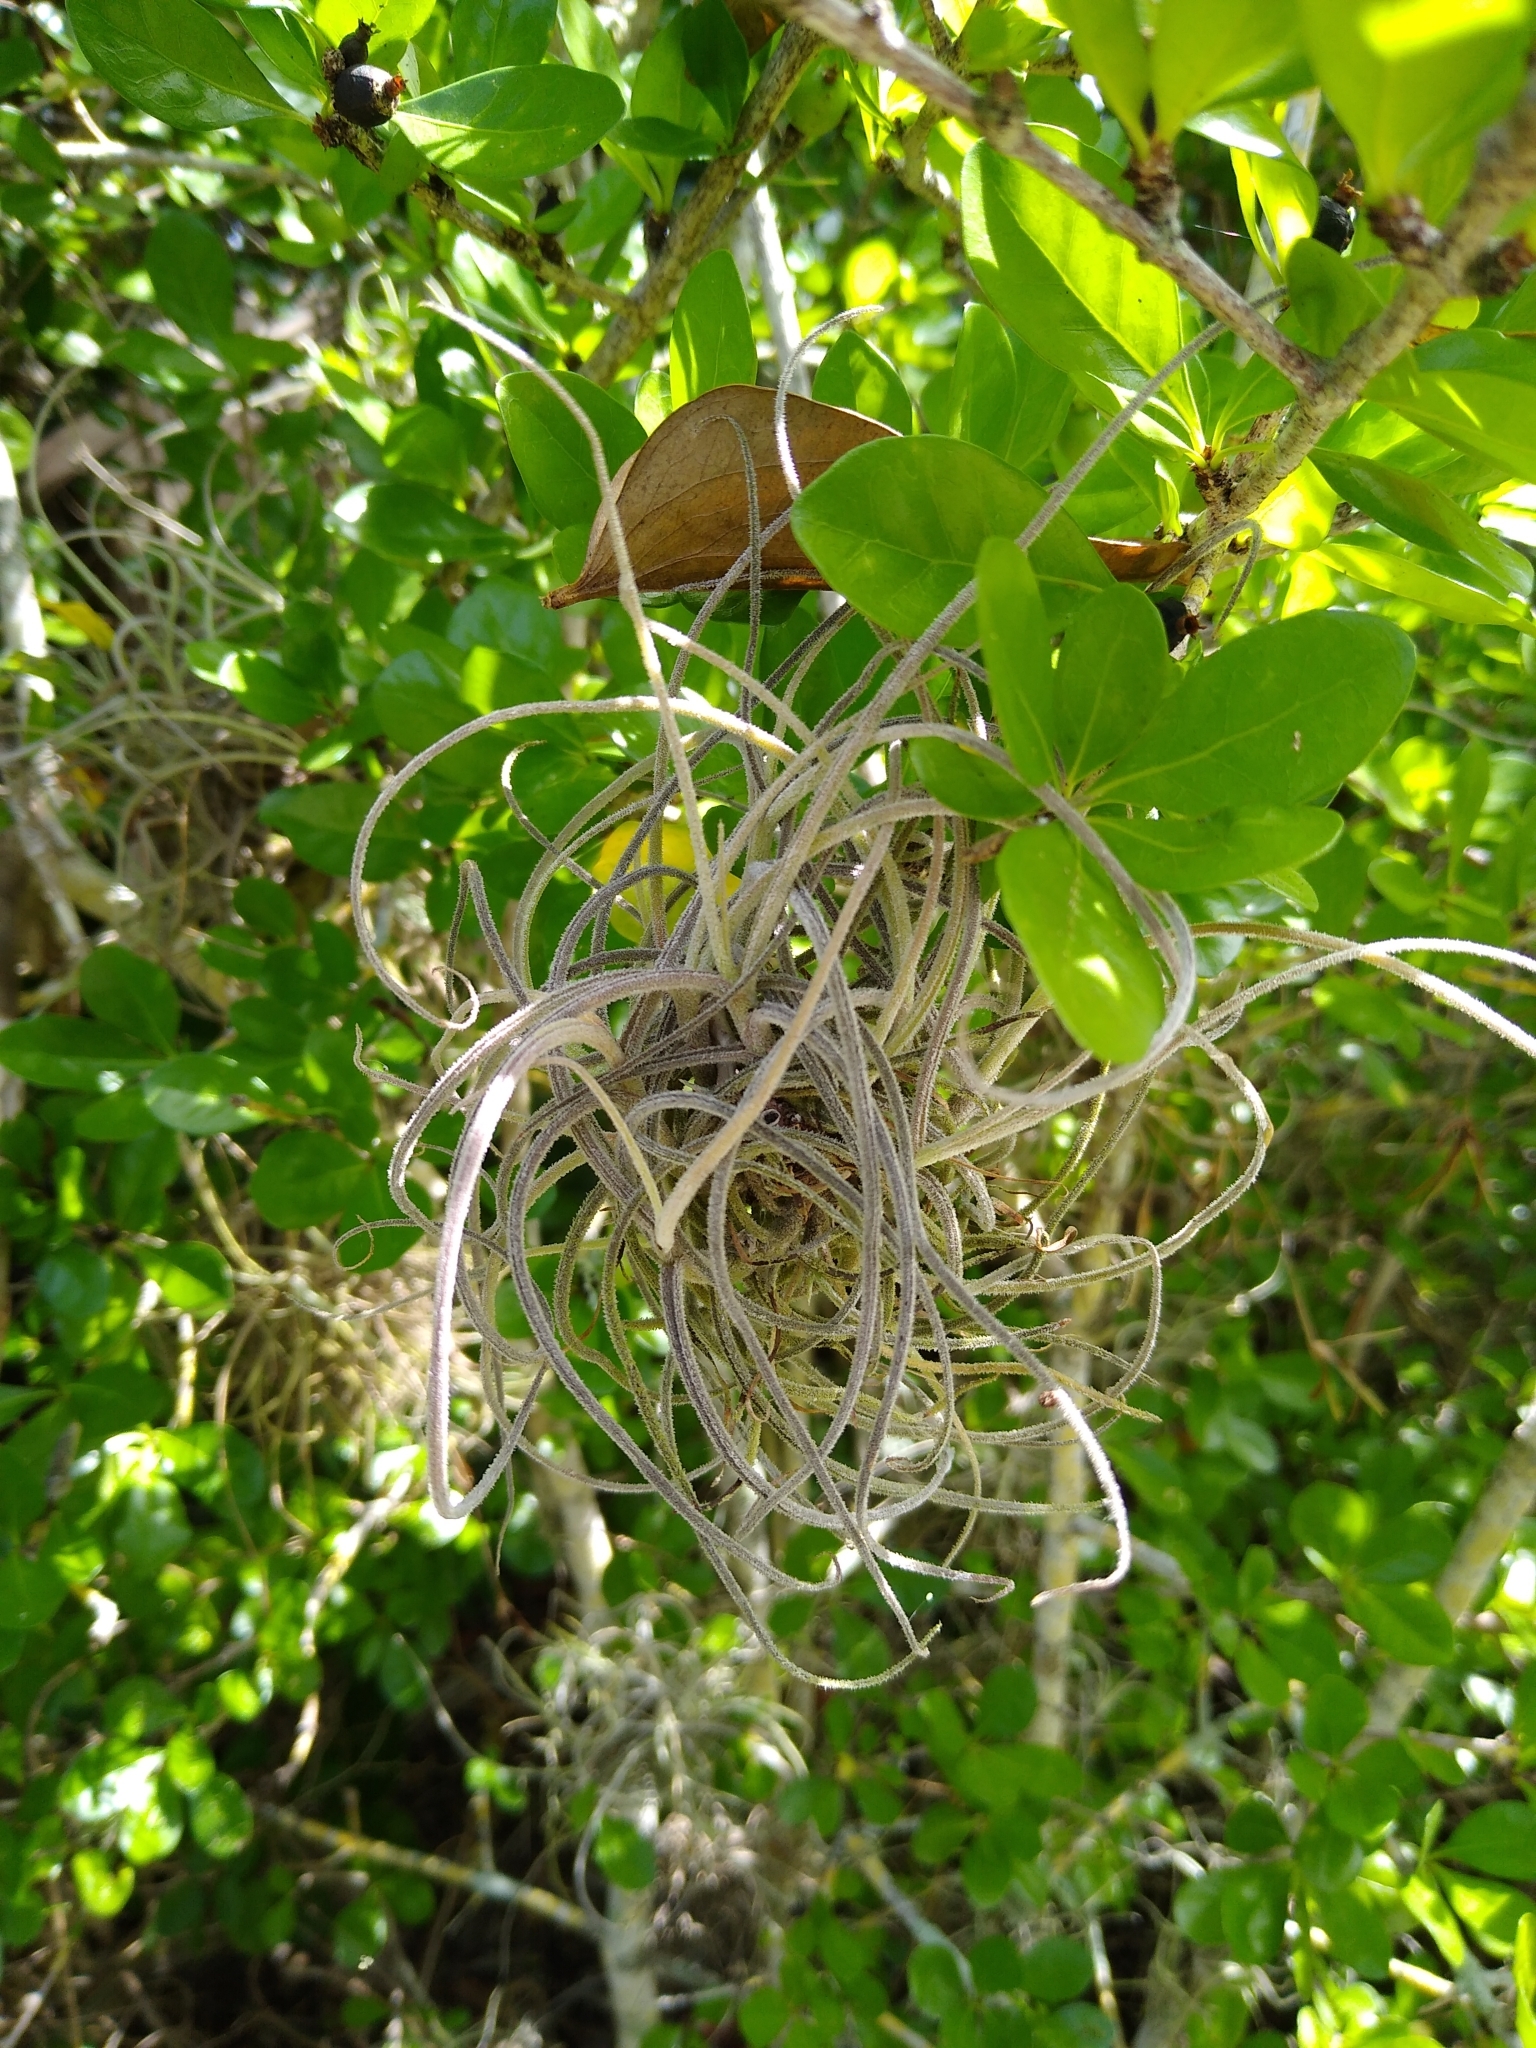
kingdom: Plantae
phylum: Tracheophyta
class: Liliopsida
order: Poales
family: Bromeliaceae
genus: Tillandsia
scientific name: Tillandsia recurvata
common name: Small ballmoss
